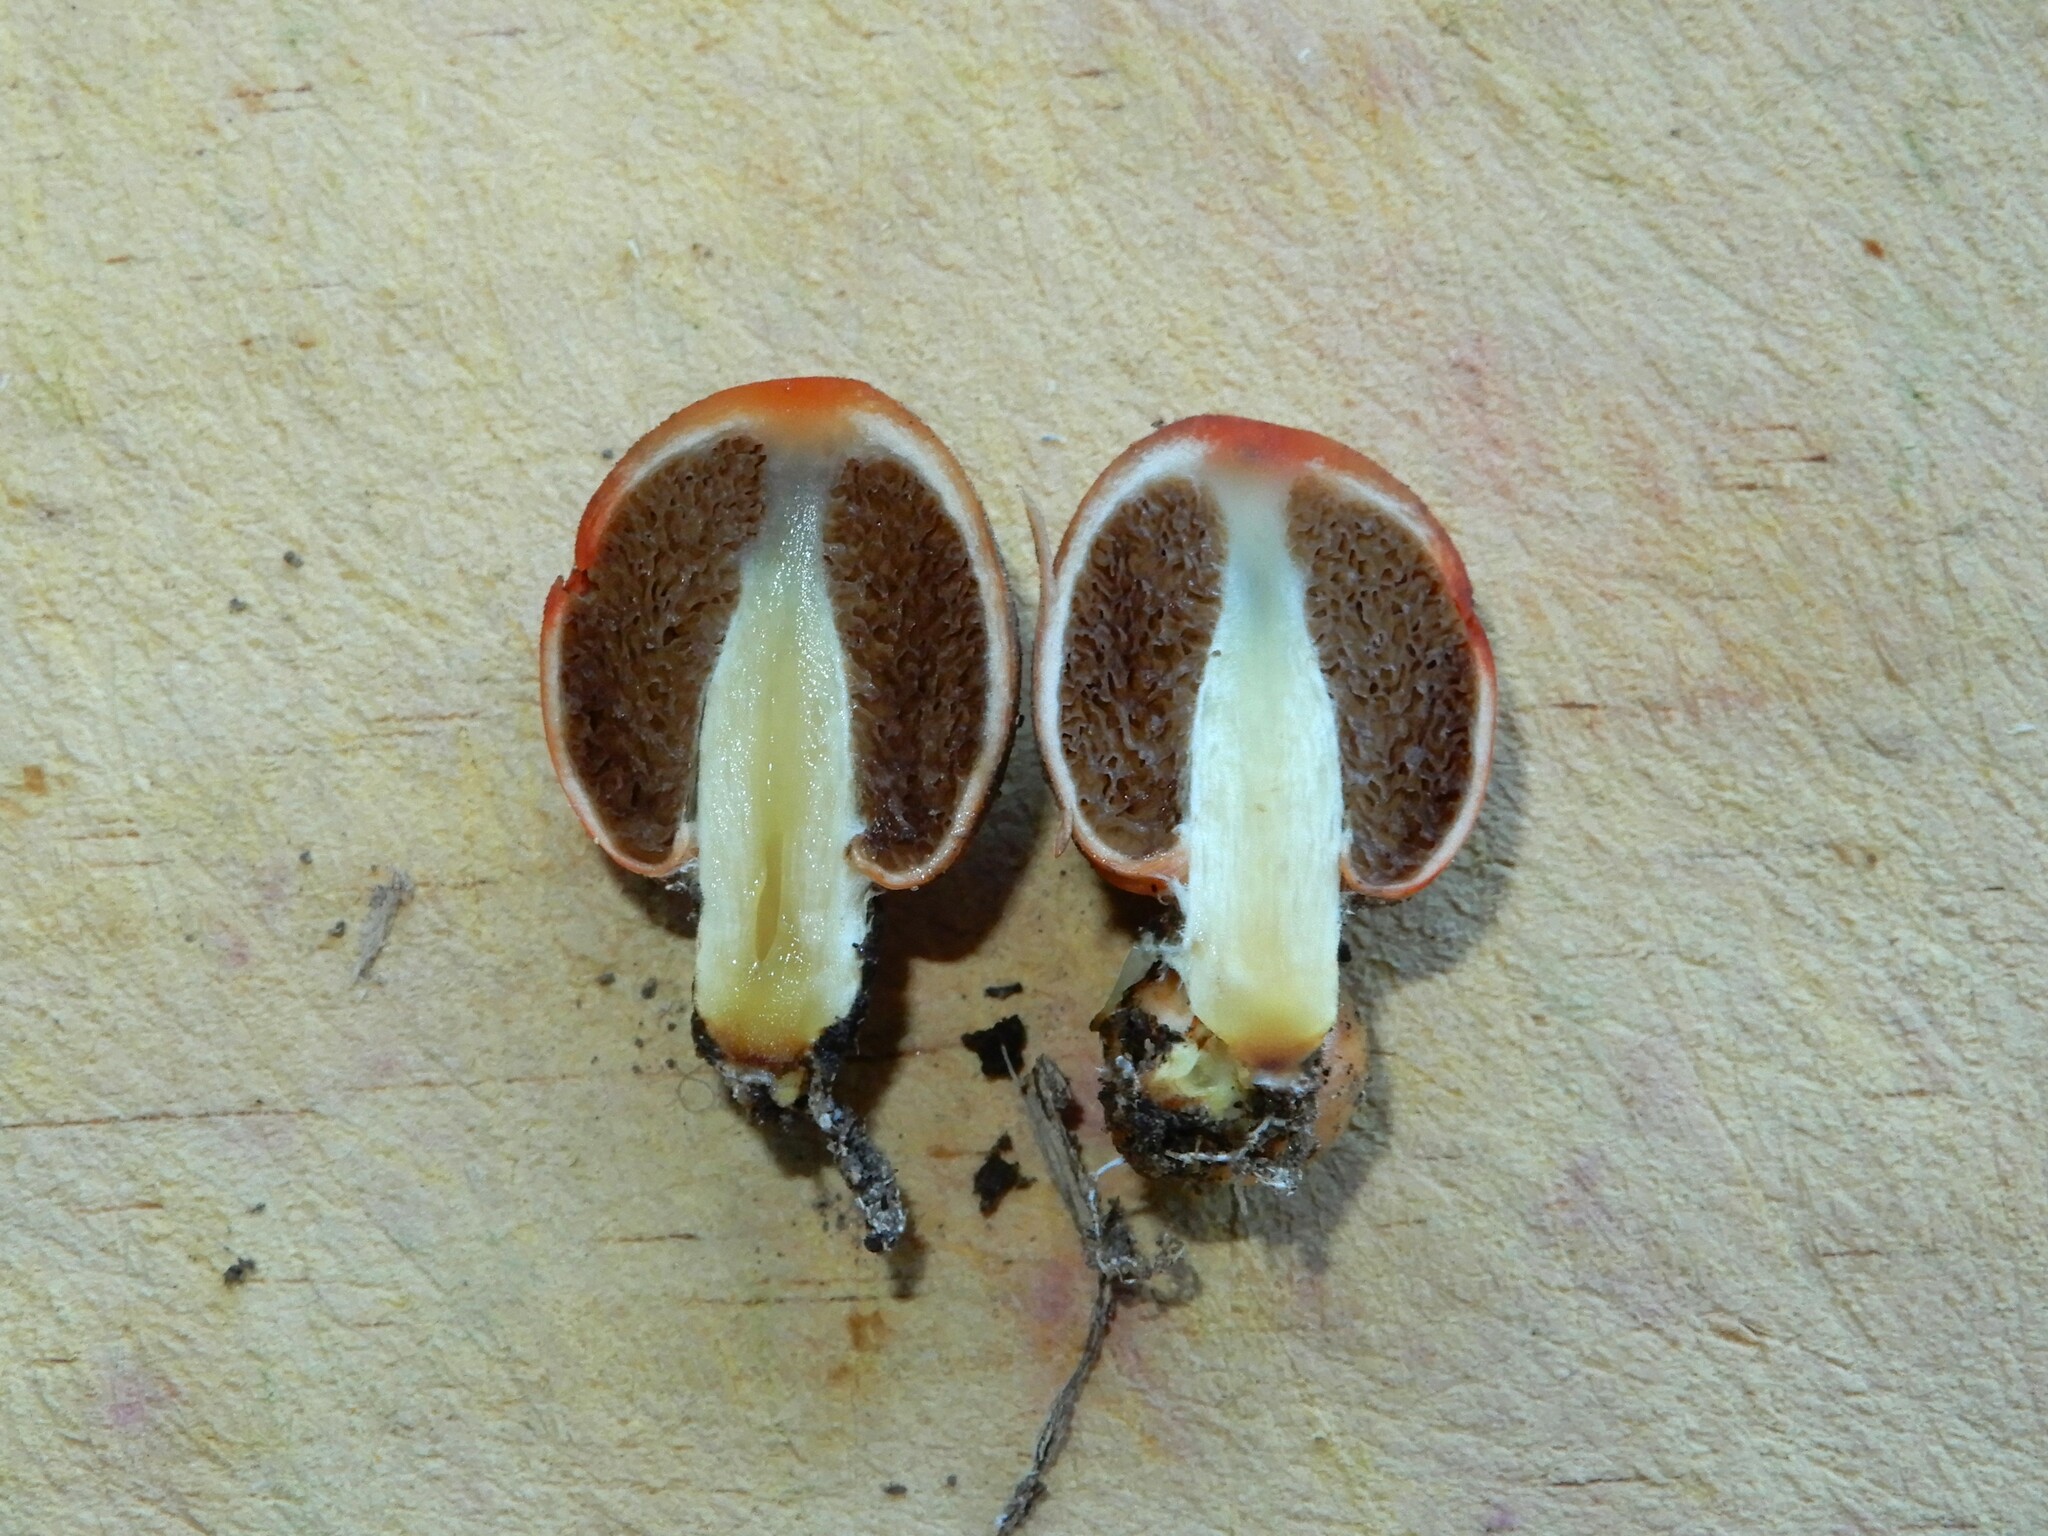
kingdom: Fungi
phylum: Basidiomycota
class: Agaricomycetes
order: Agaricales
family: Strophariaceae
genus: Leratiomyces
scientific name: Leratiomyces erythrocephalus
